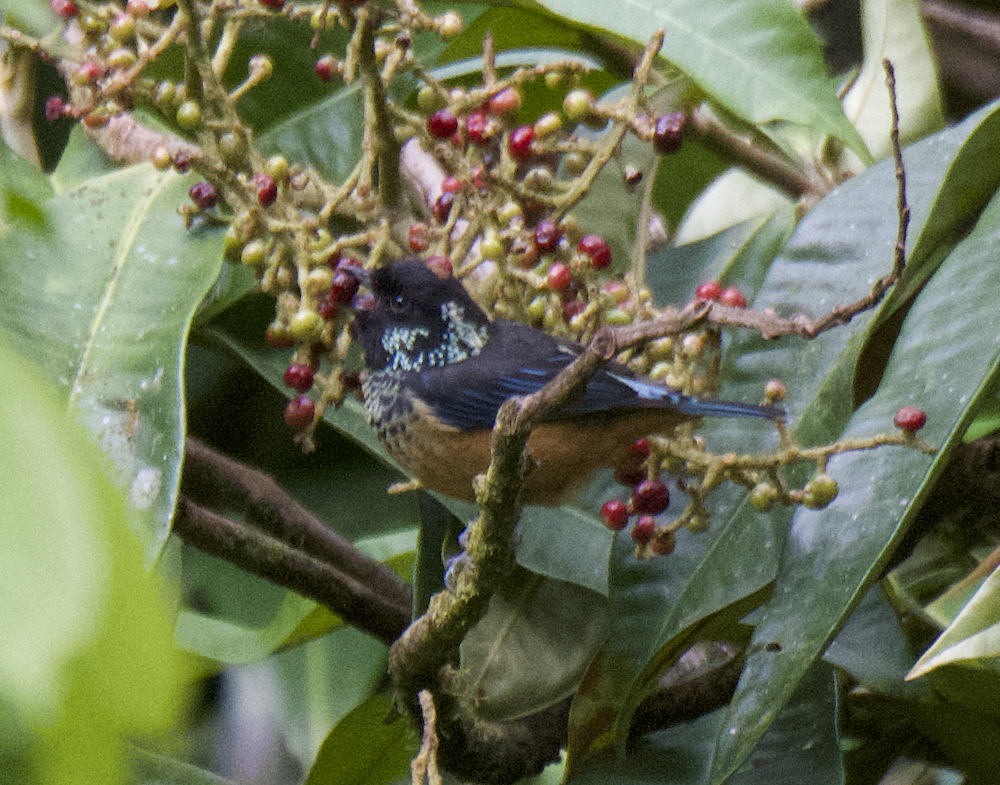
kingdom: Animalia
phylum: Chordata
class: Aves
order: Passeriformes
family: Thraupidae
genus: Tangara
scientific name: Tangara dowii
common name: Spangle-cheeked tanager
